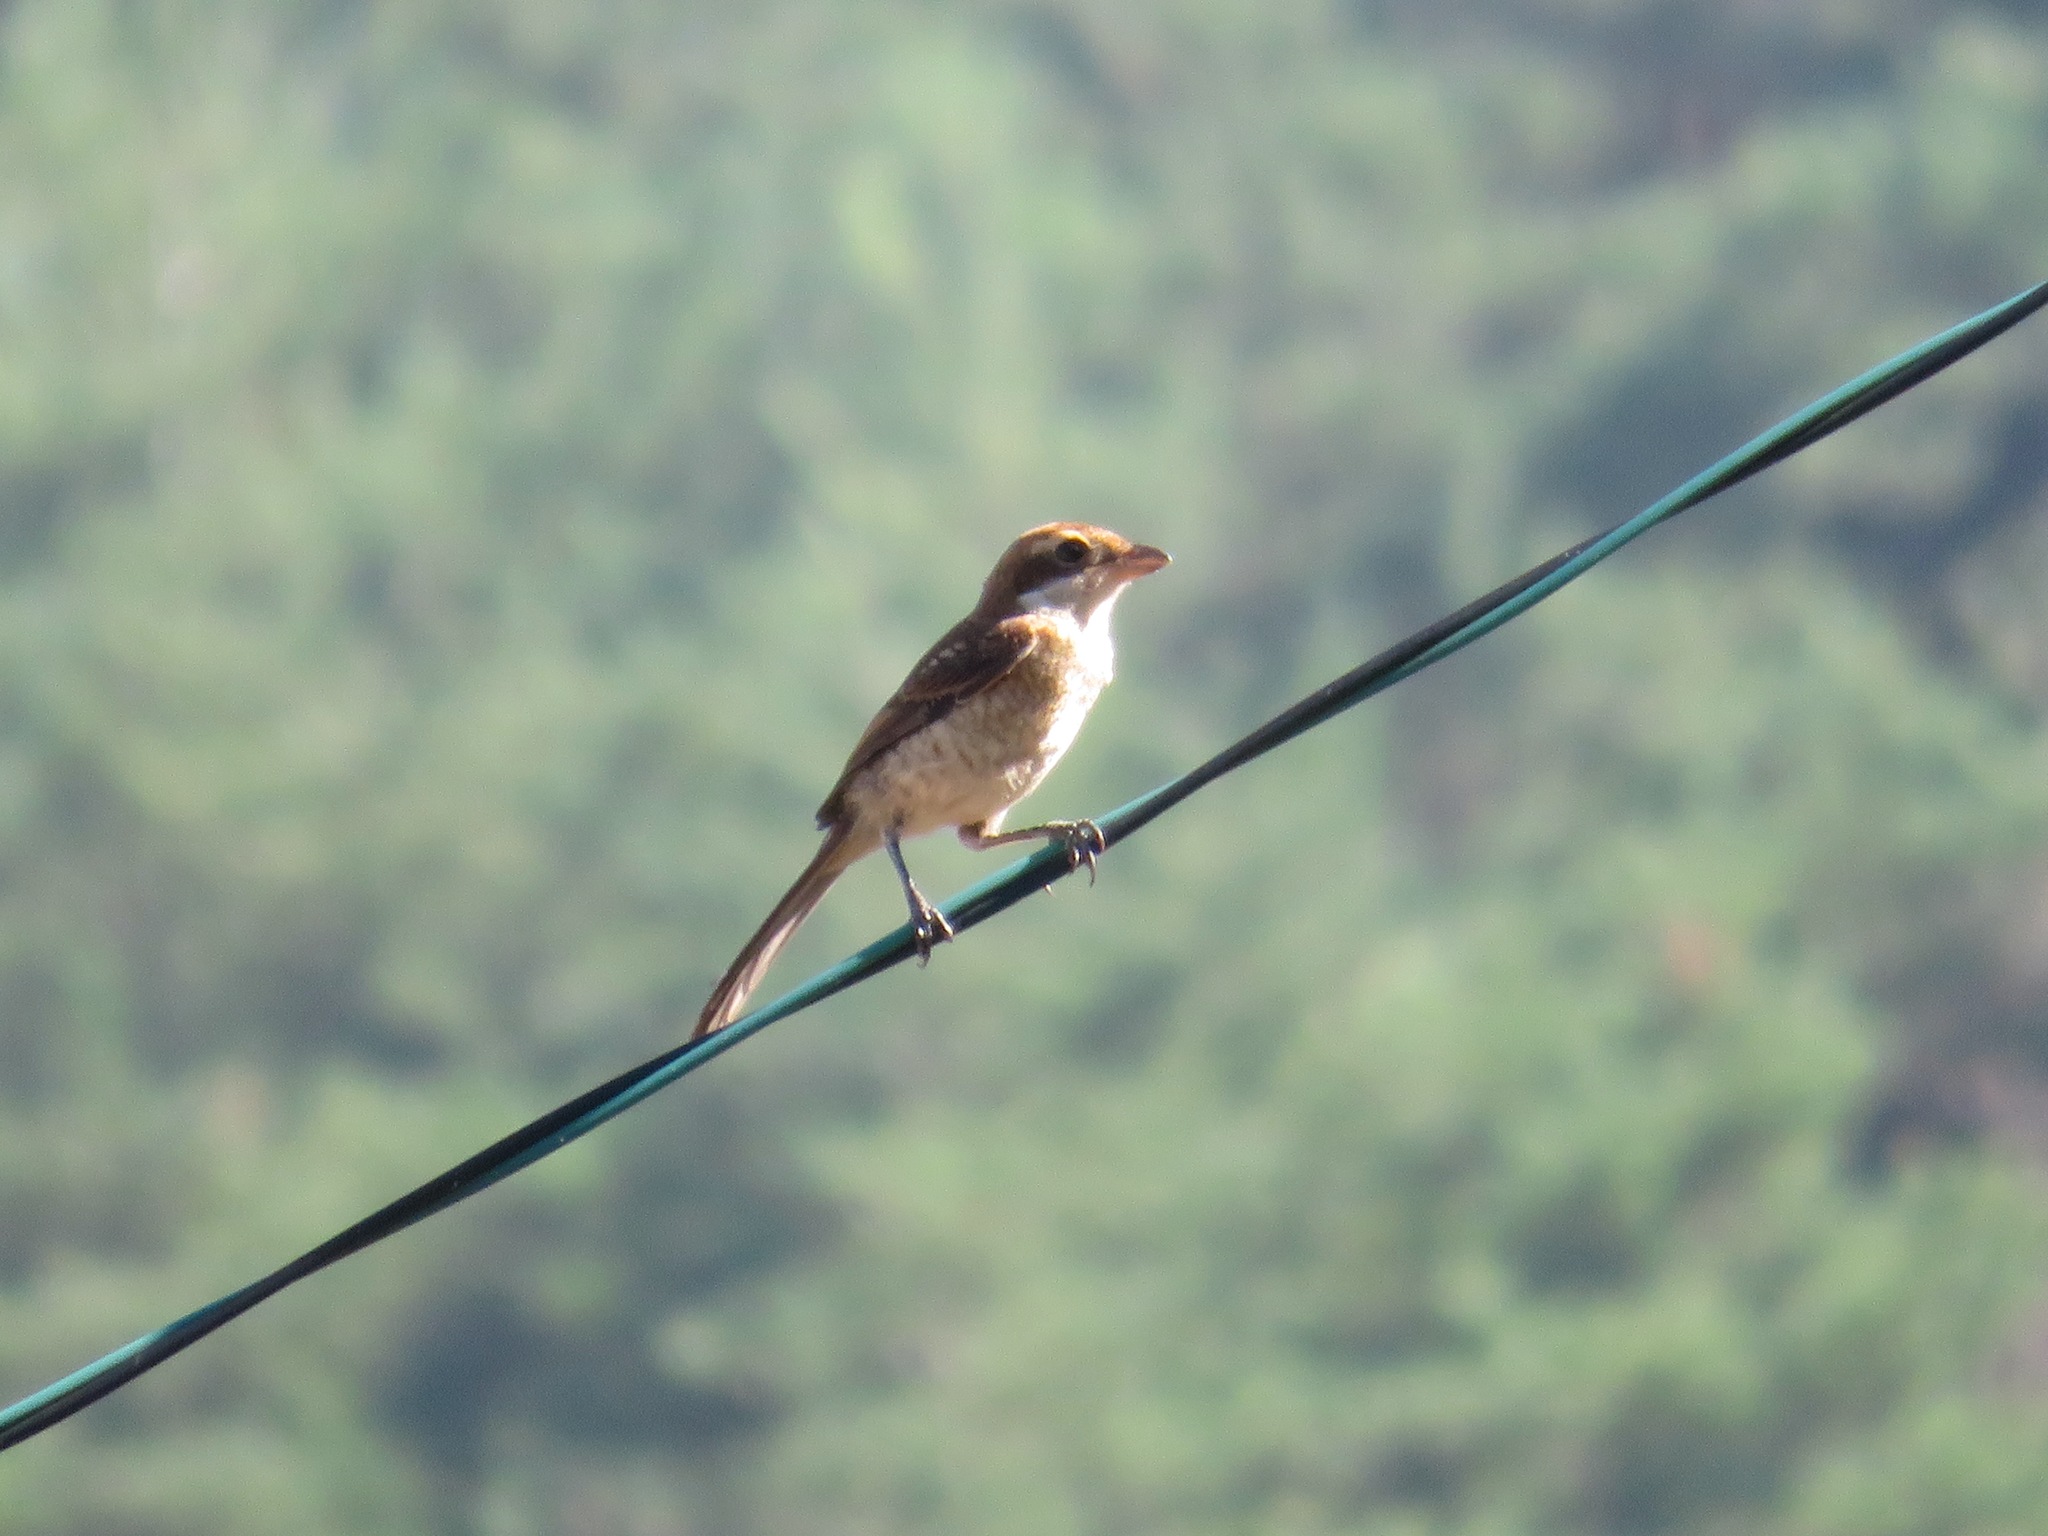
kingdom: Animalia
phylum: Chordata
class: Aves
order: Passeriformes
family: Laniidae
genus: Lanius
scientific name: Lanius bucephalus
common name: Bull-headed shrike
